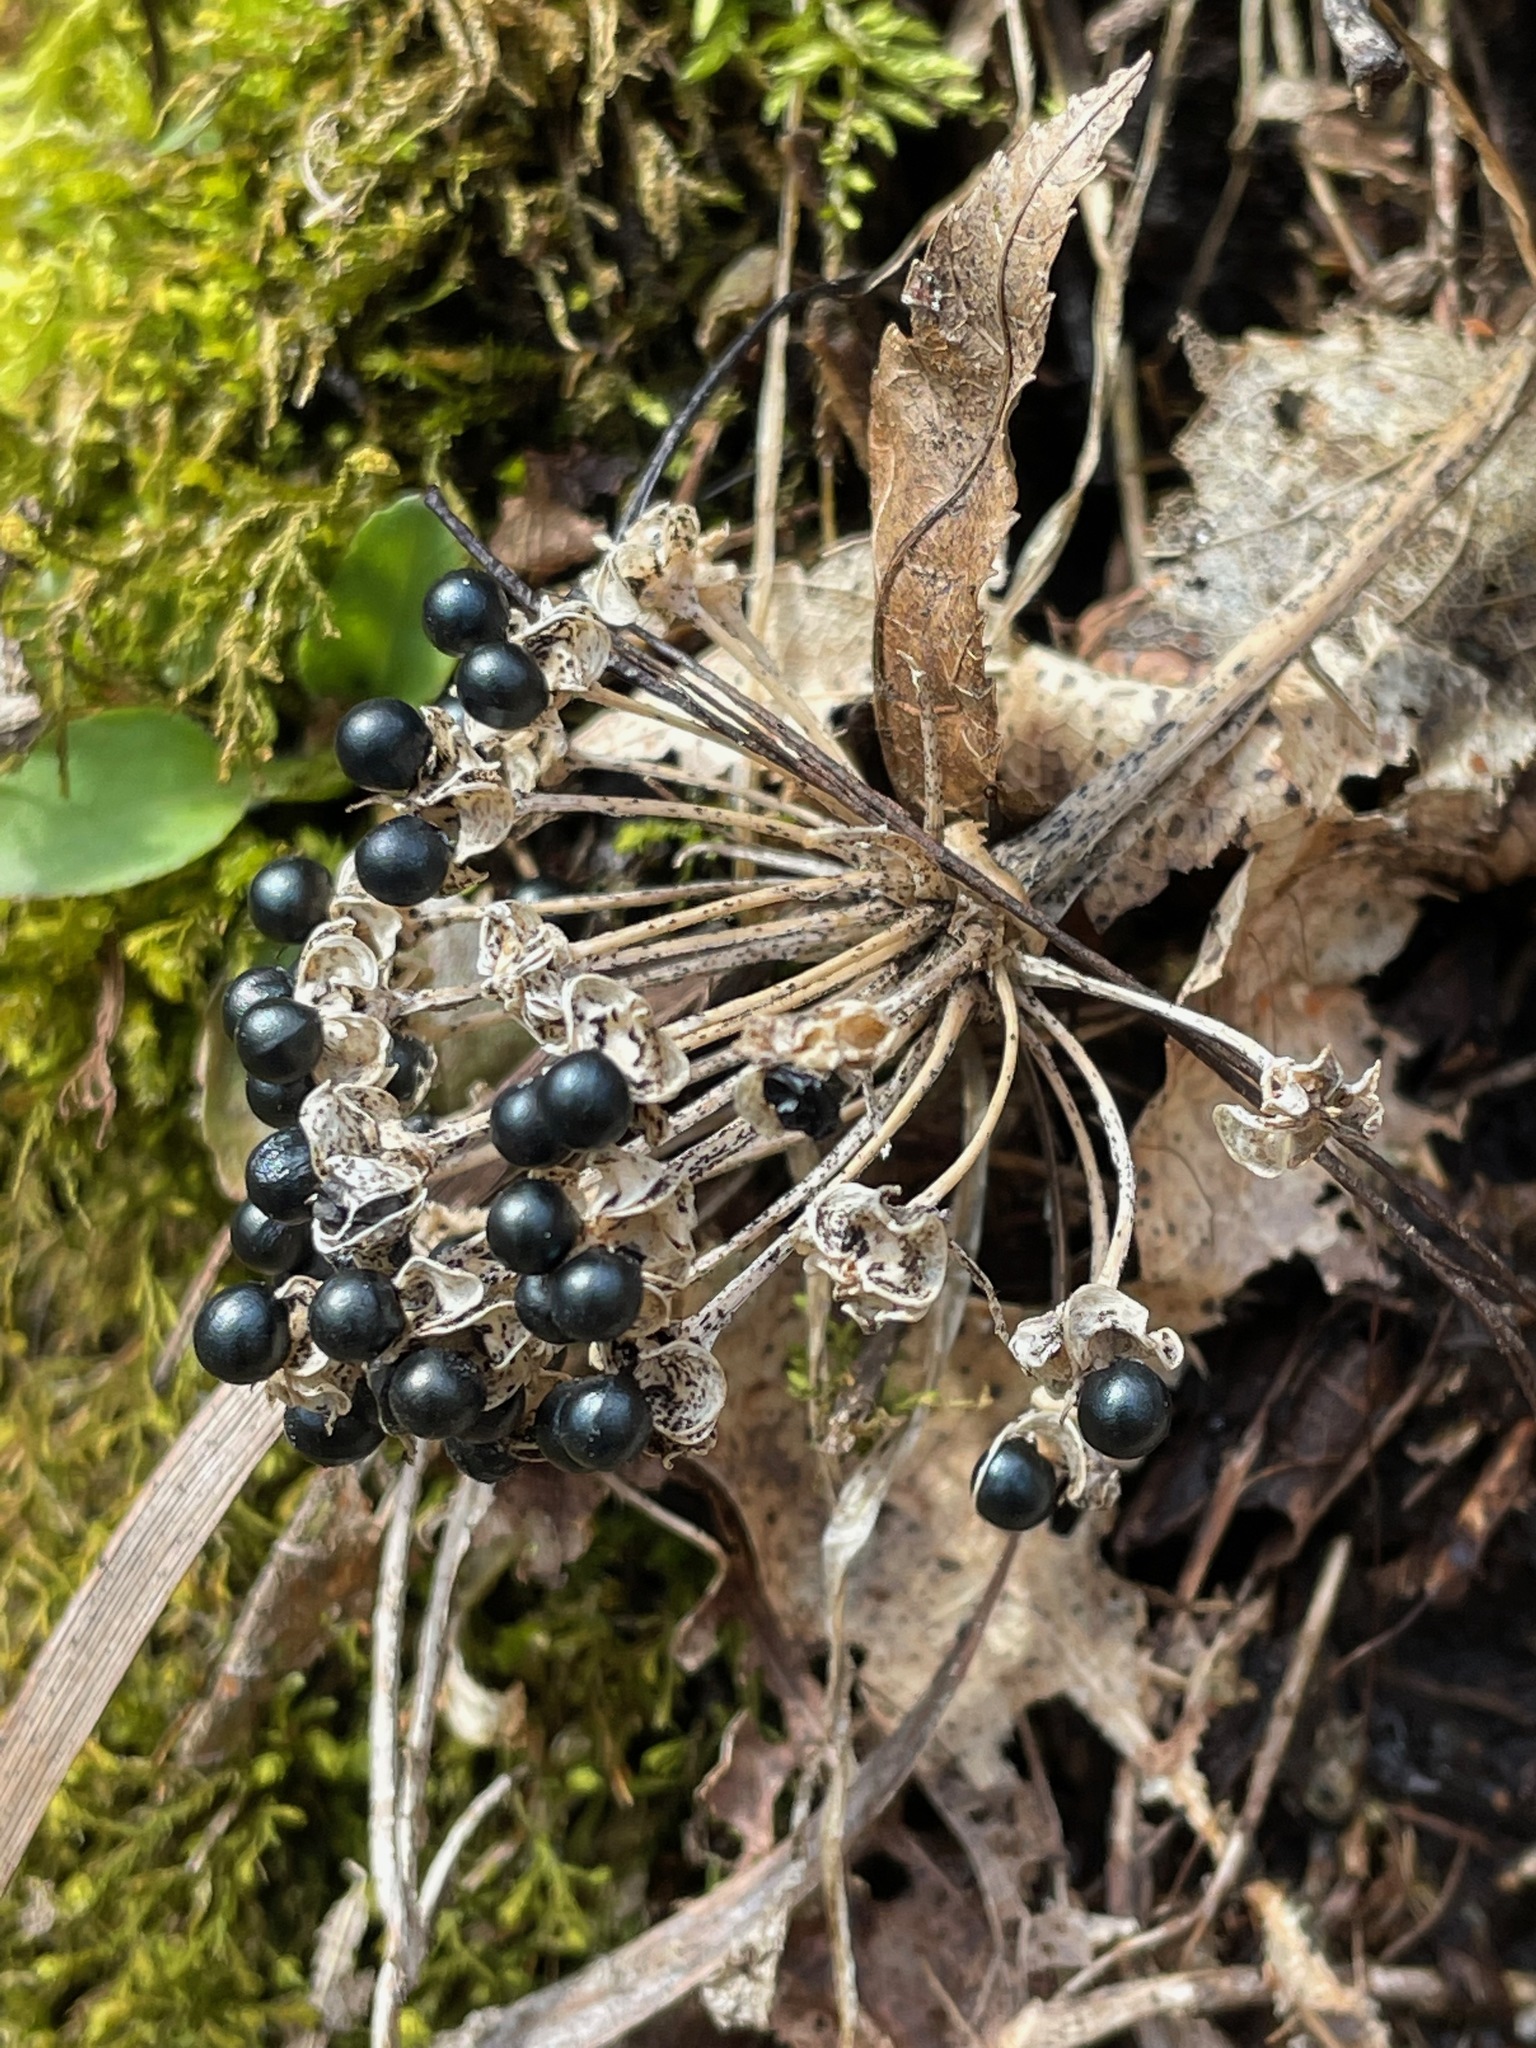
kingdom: Plantae
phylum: Tracheophyta
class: Liliopsida
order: Asparagales
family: Amaryllidaceae
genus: Allium
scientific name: Allium tricoccum
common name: Ramp
